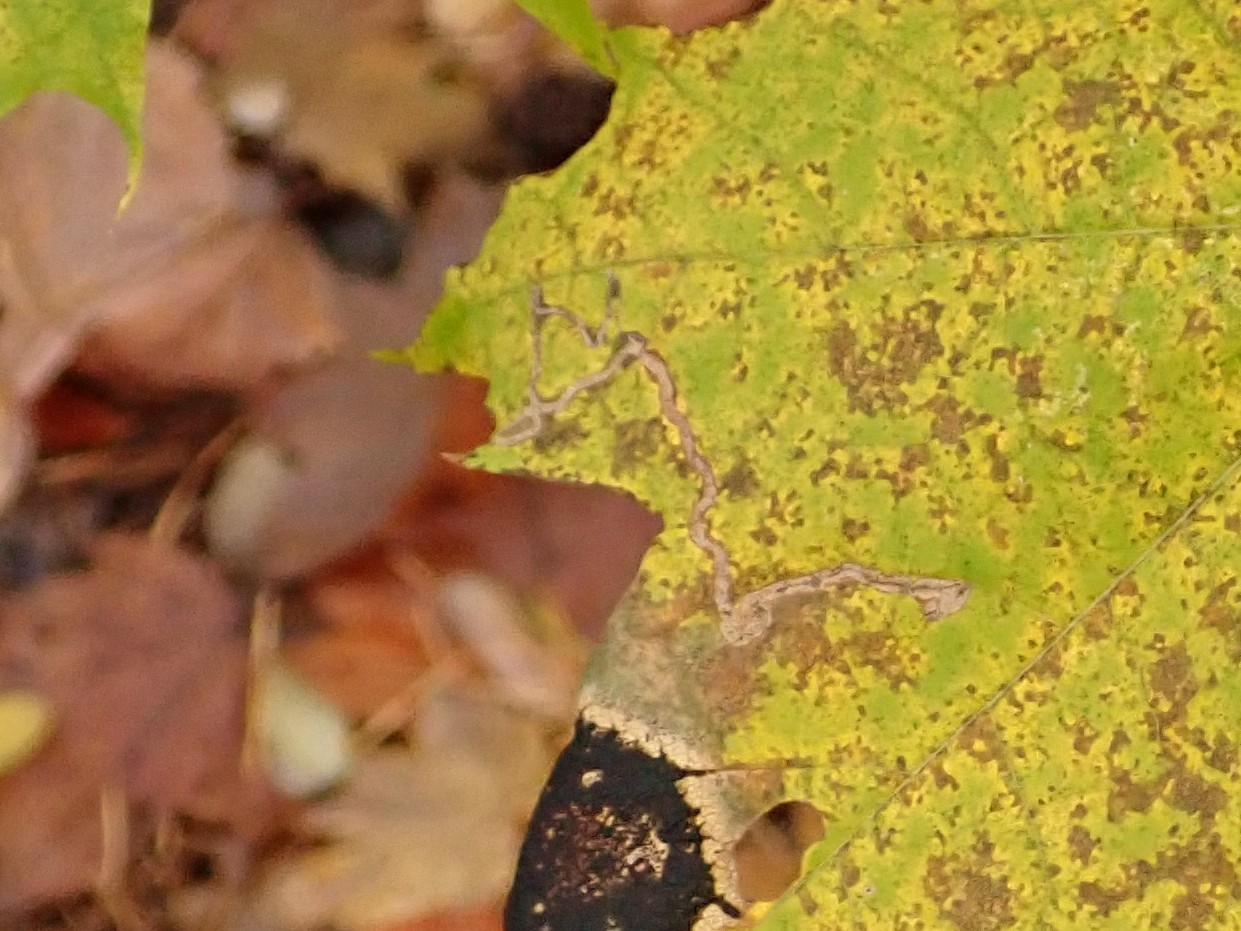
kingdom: Animalia
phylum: Arthropoda
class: Insecta
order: Lepidoptera
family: Nepticulidae
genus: Stigmella
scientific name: Stigmella aceris
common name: Scarce maple pigmy
